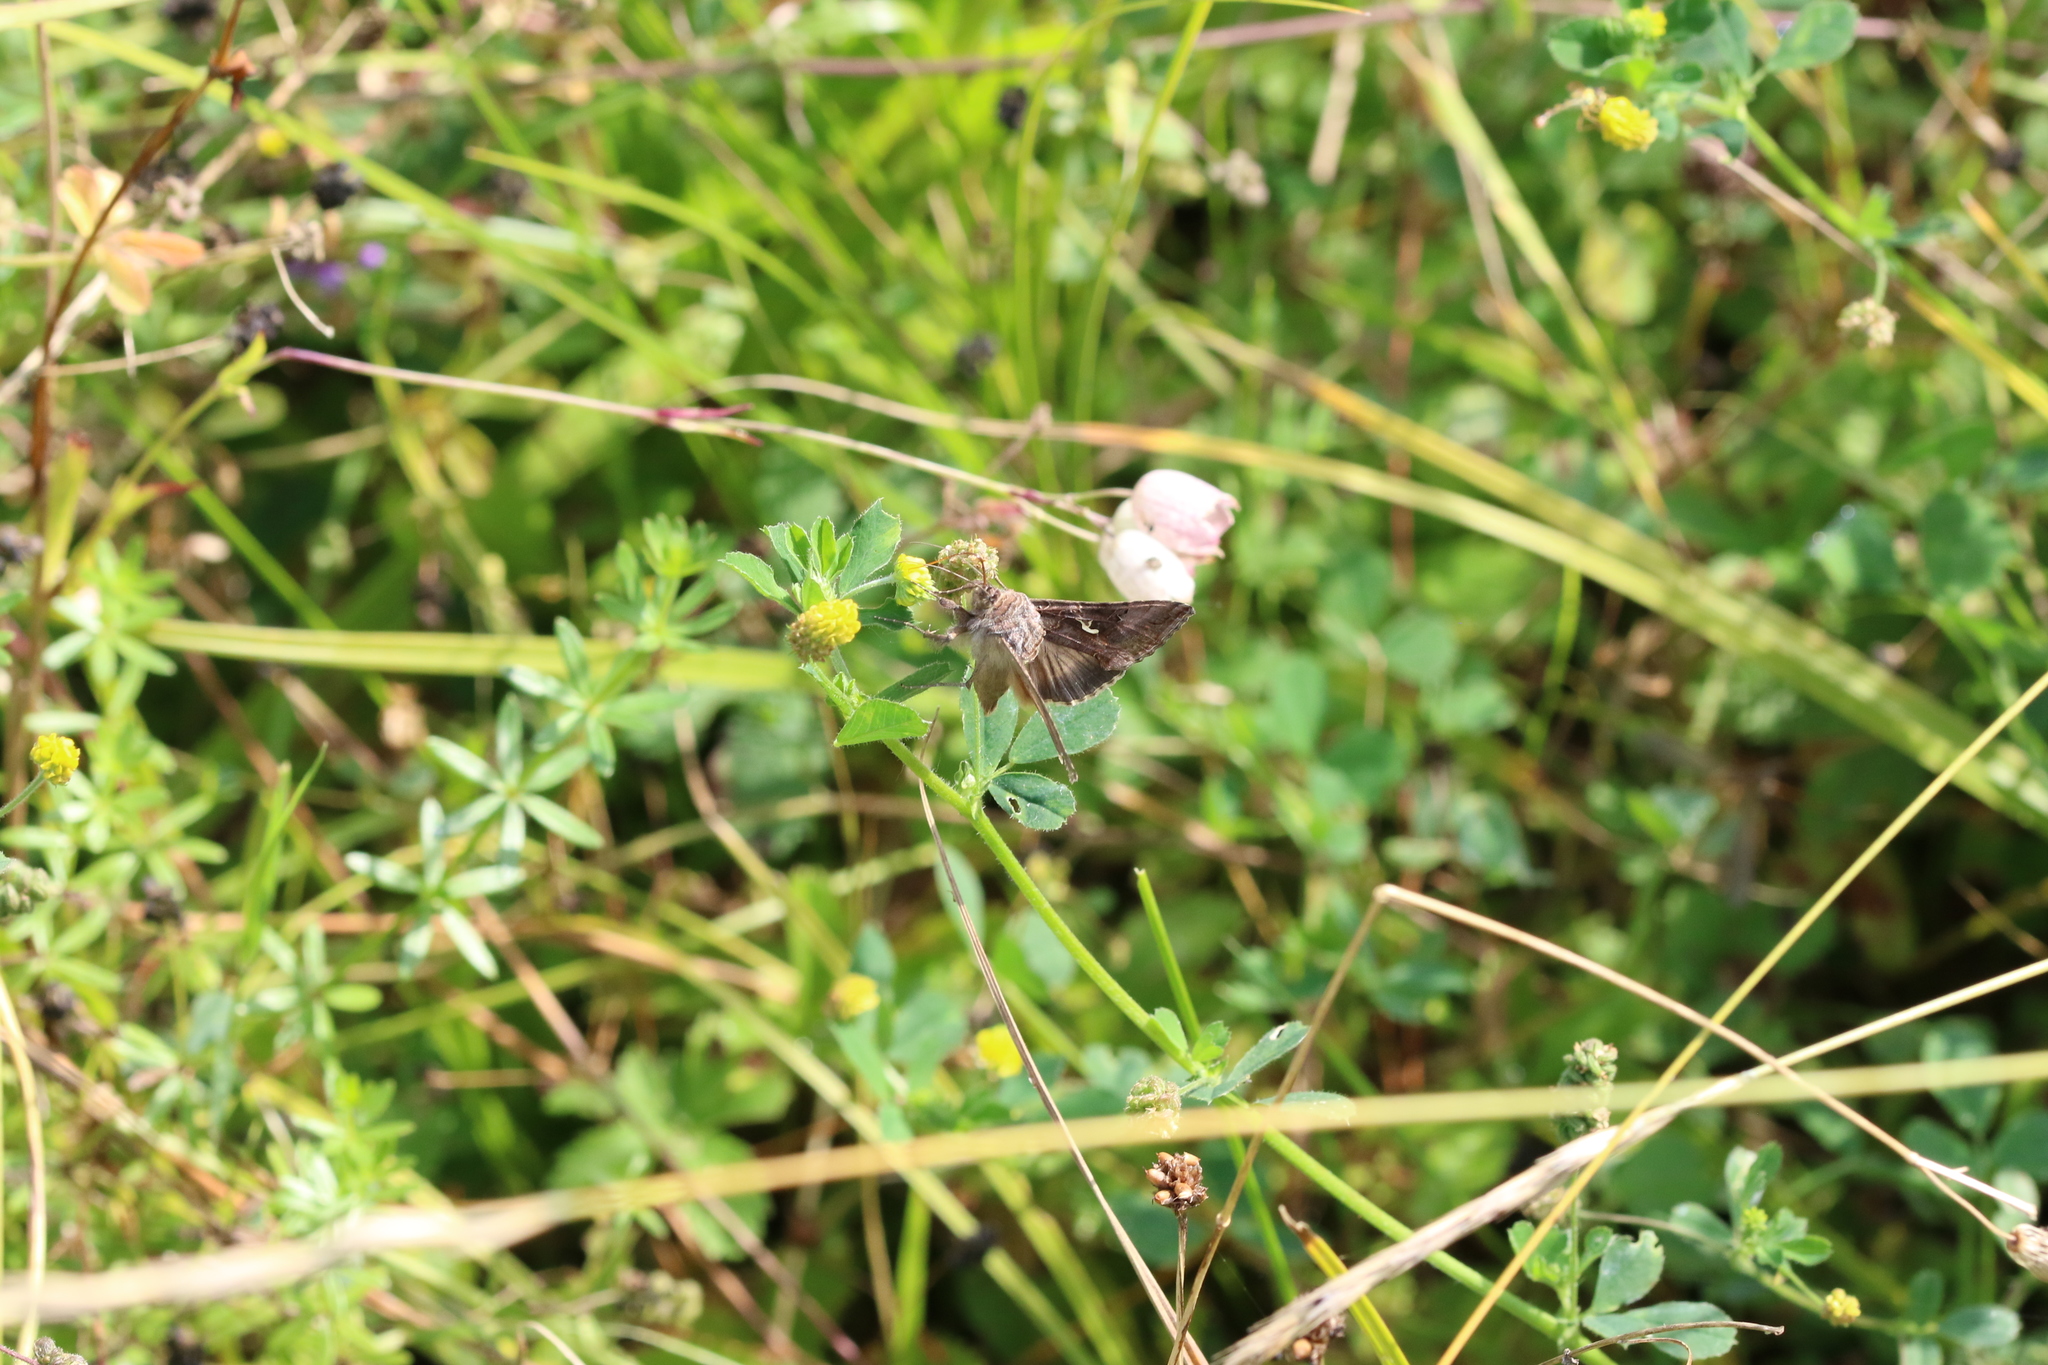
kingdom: Animalia
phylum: Arthropoda
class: Insecta
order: Lepidoptera
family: Noctuidae
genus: Autographa
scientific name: Autographa gamma
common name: Silver y
